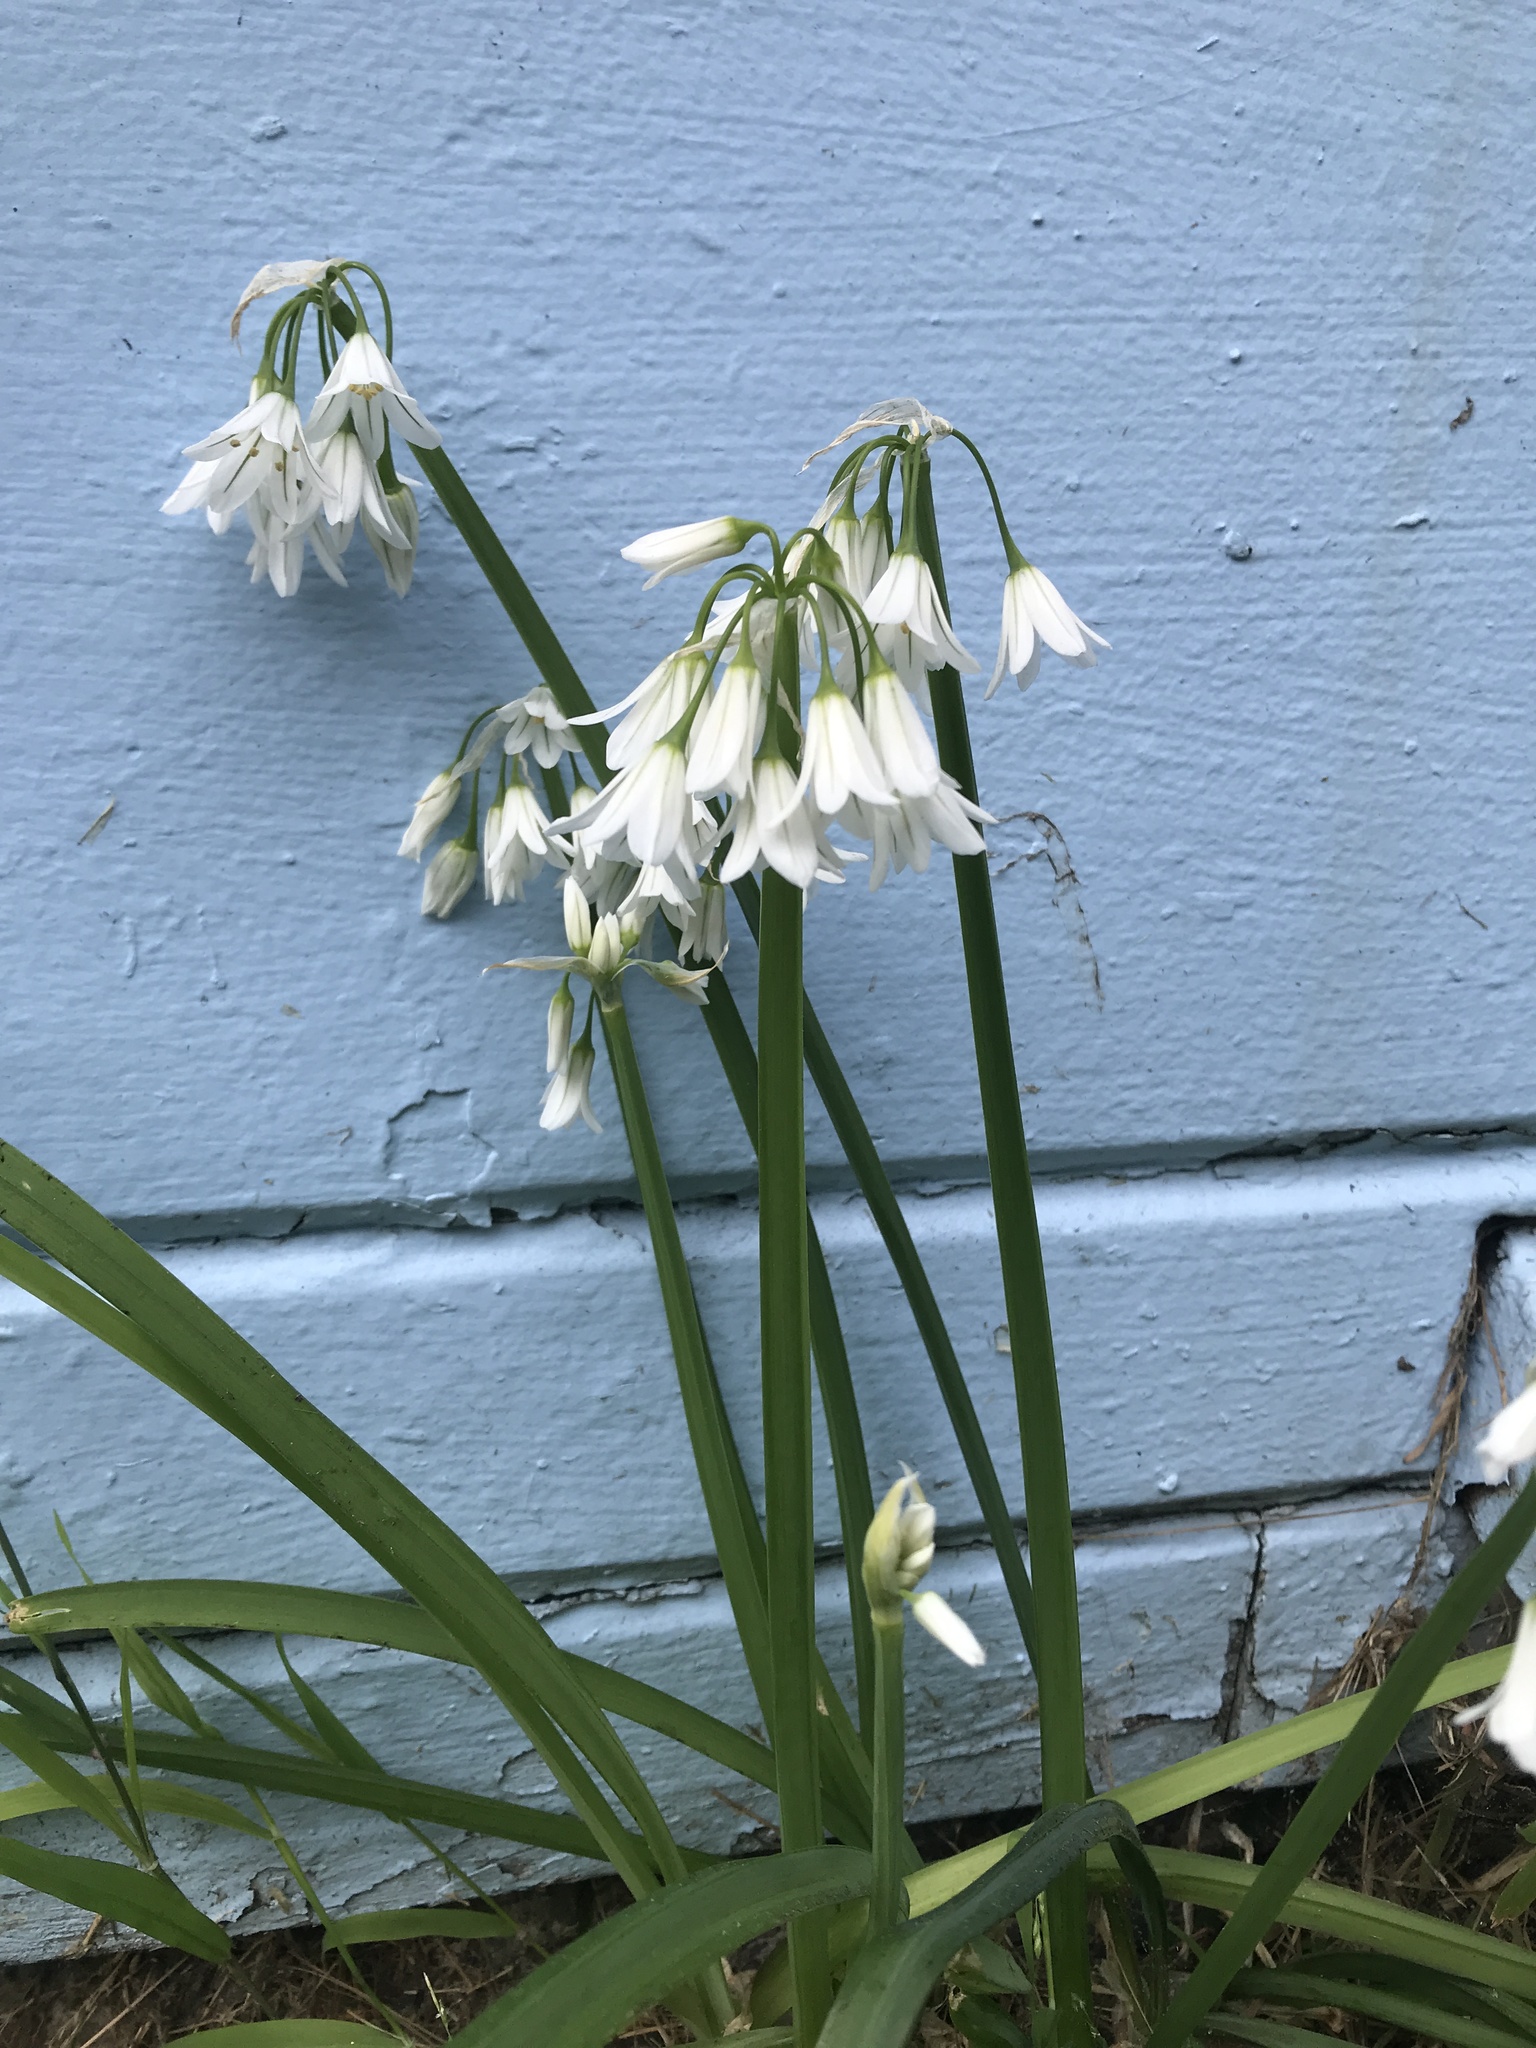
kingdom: Plantae
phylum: Tracheophyta
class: Liliopsida
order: Asparagales
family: Amaryllidaceae
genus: Allium
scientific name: Allium triquetrum
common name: Three-cornered garlic
